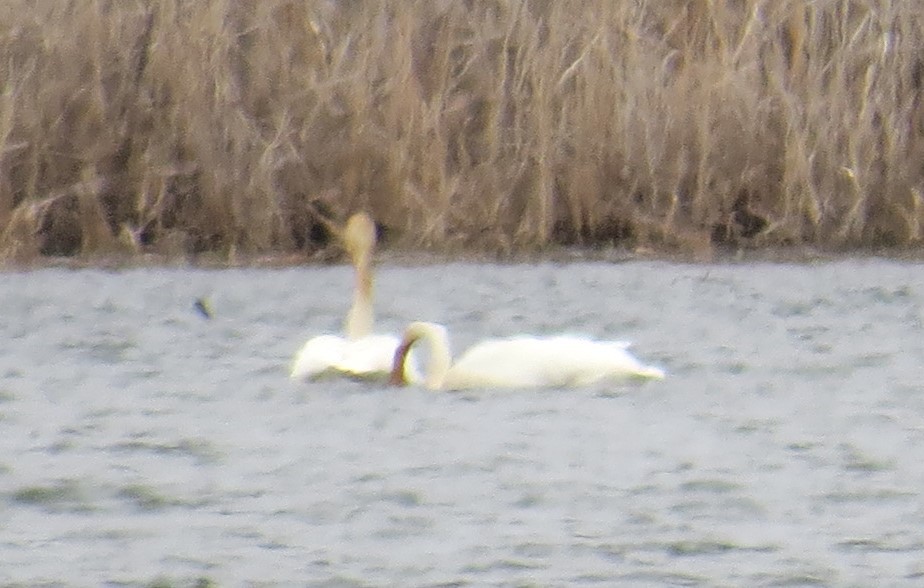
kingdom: Animalia
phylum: Chordata
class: Aves
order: Anseriformes
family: Anatidae
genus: Cygnus
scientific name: Cygnus buccinator
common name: Trumpeter swan
